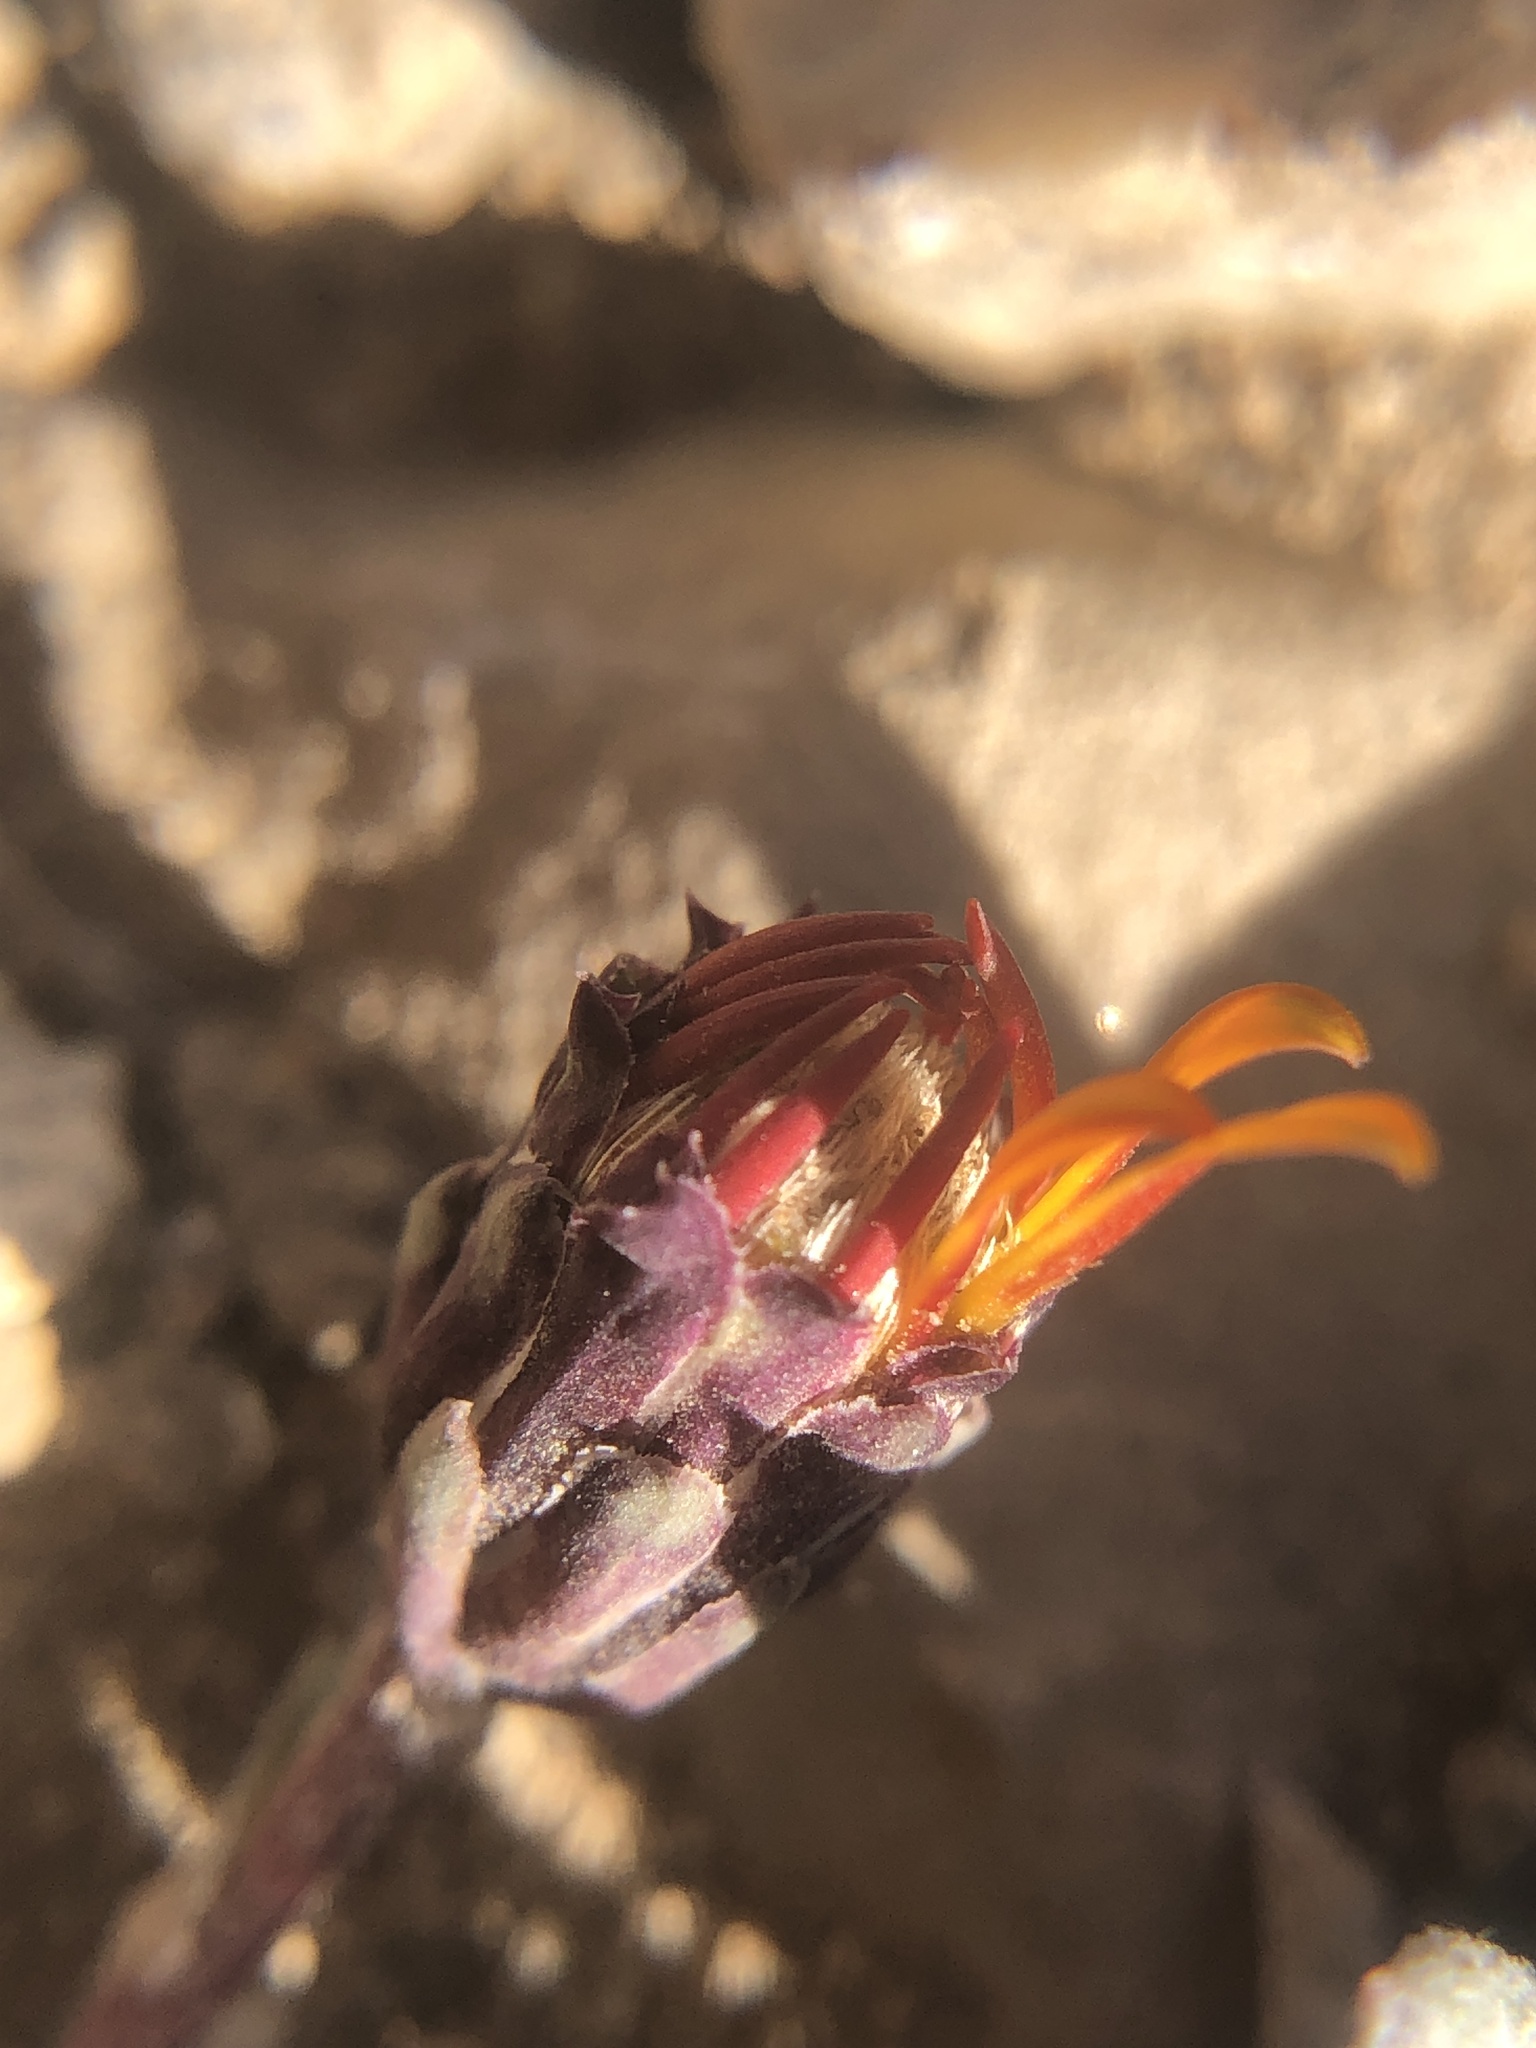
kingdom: Plantae
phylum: Tracheophyta
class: Magnoliopsida
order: Asterales
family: Asteraceae
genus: Pyrrocoma
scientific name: Pyrrocoma apargioides
